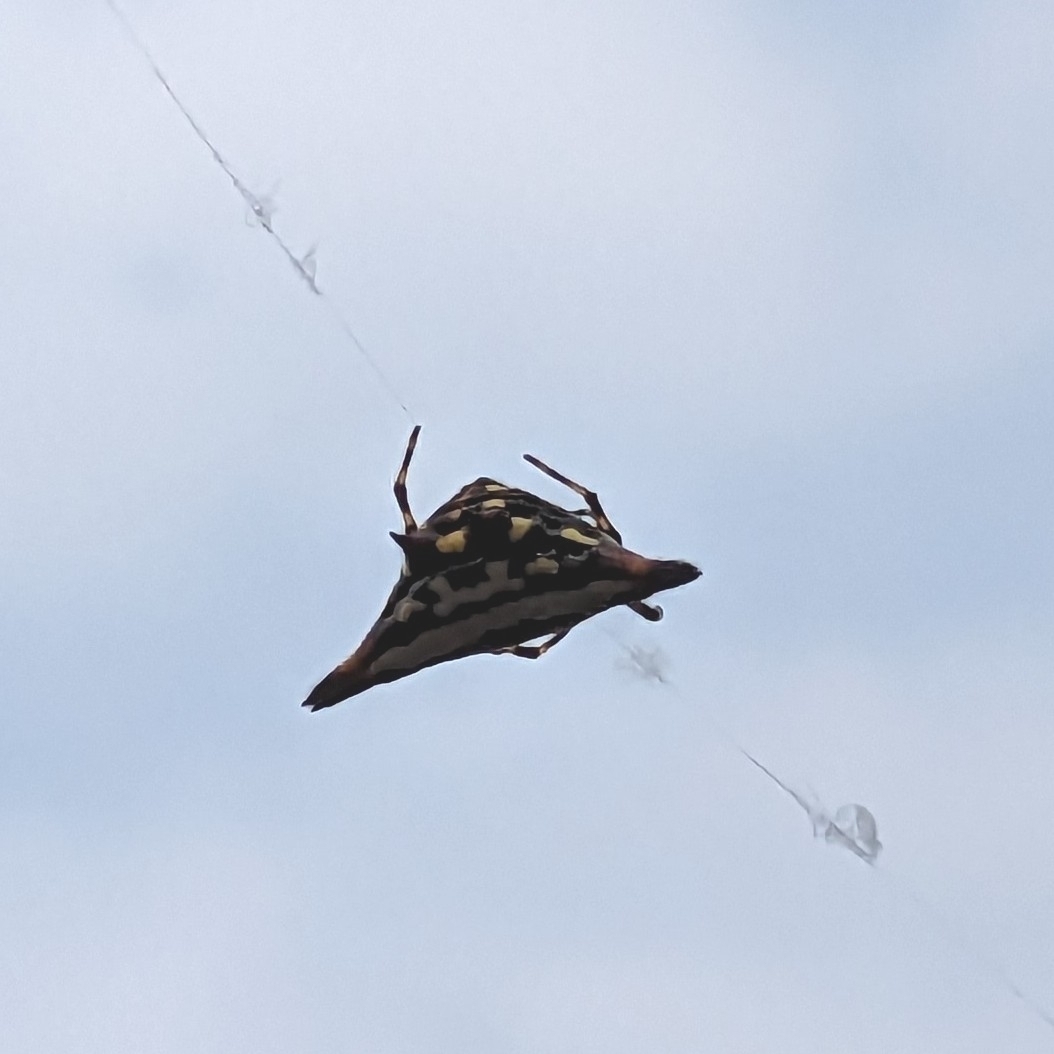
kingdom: Animalia
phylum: Arthropoda
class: Arachnida
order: Araneae
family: Araneidae
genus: Gasteracantha
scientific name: Gasteracantha geminata
